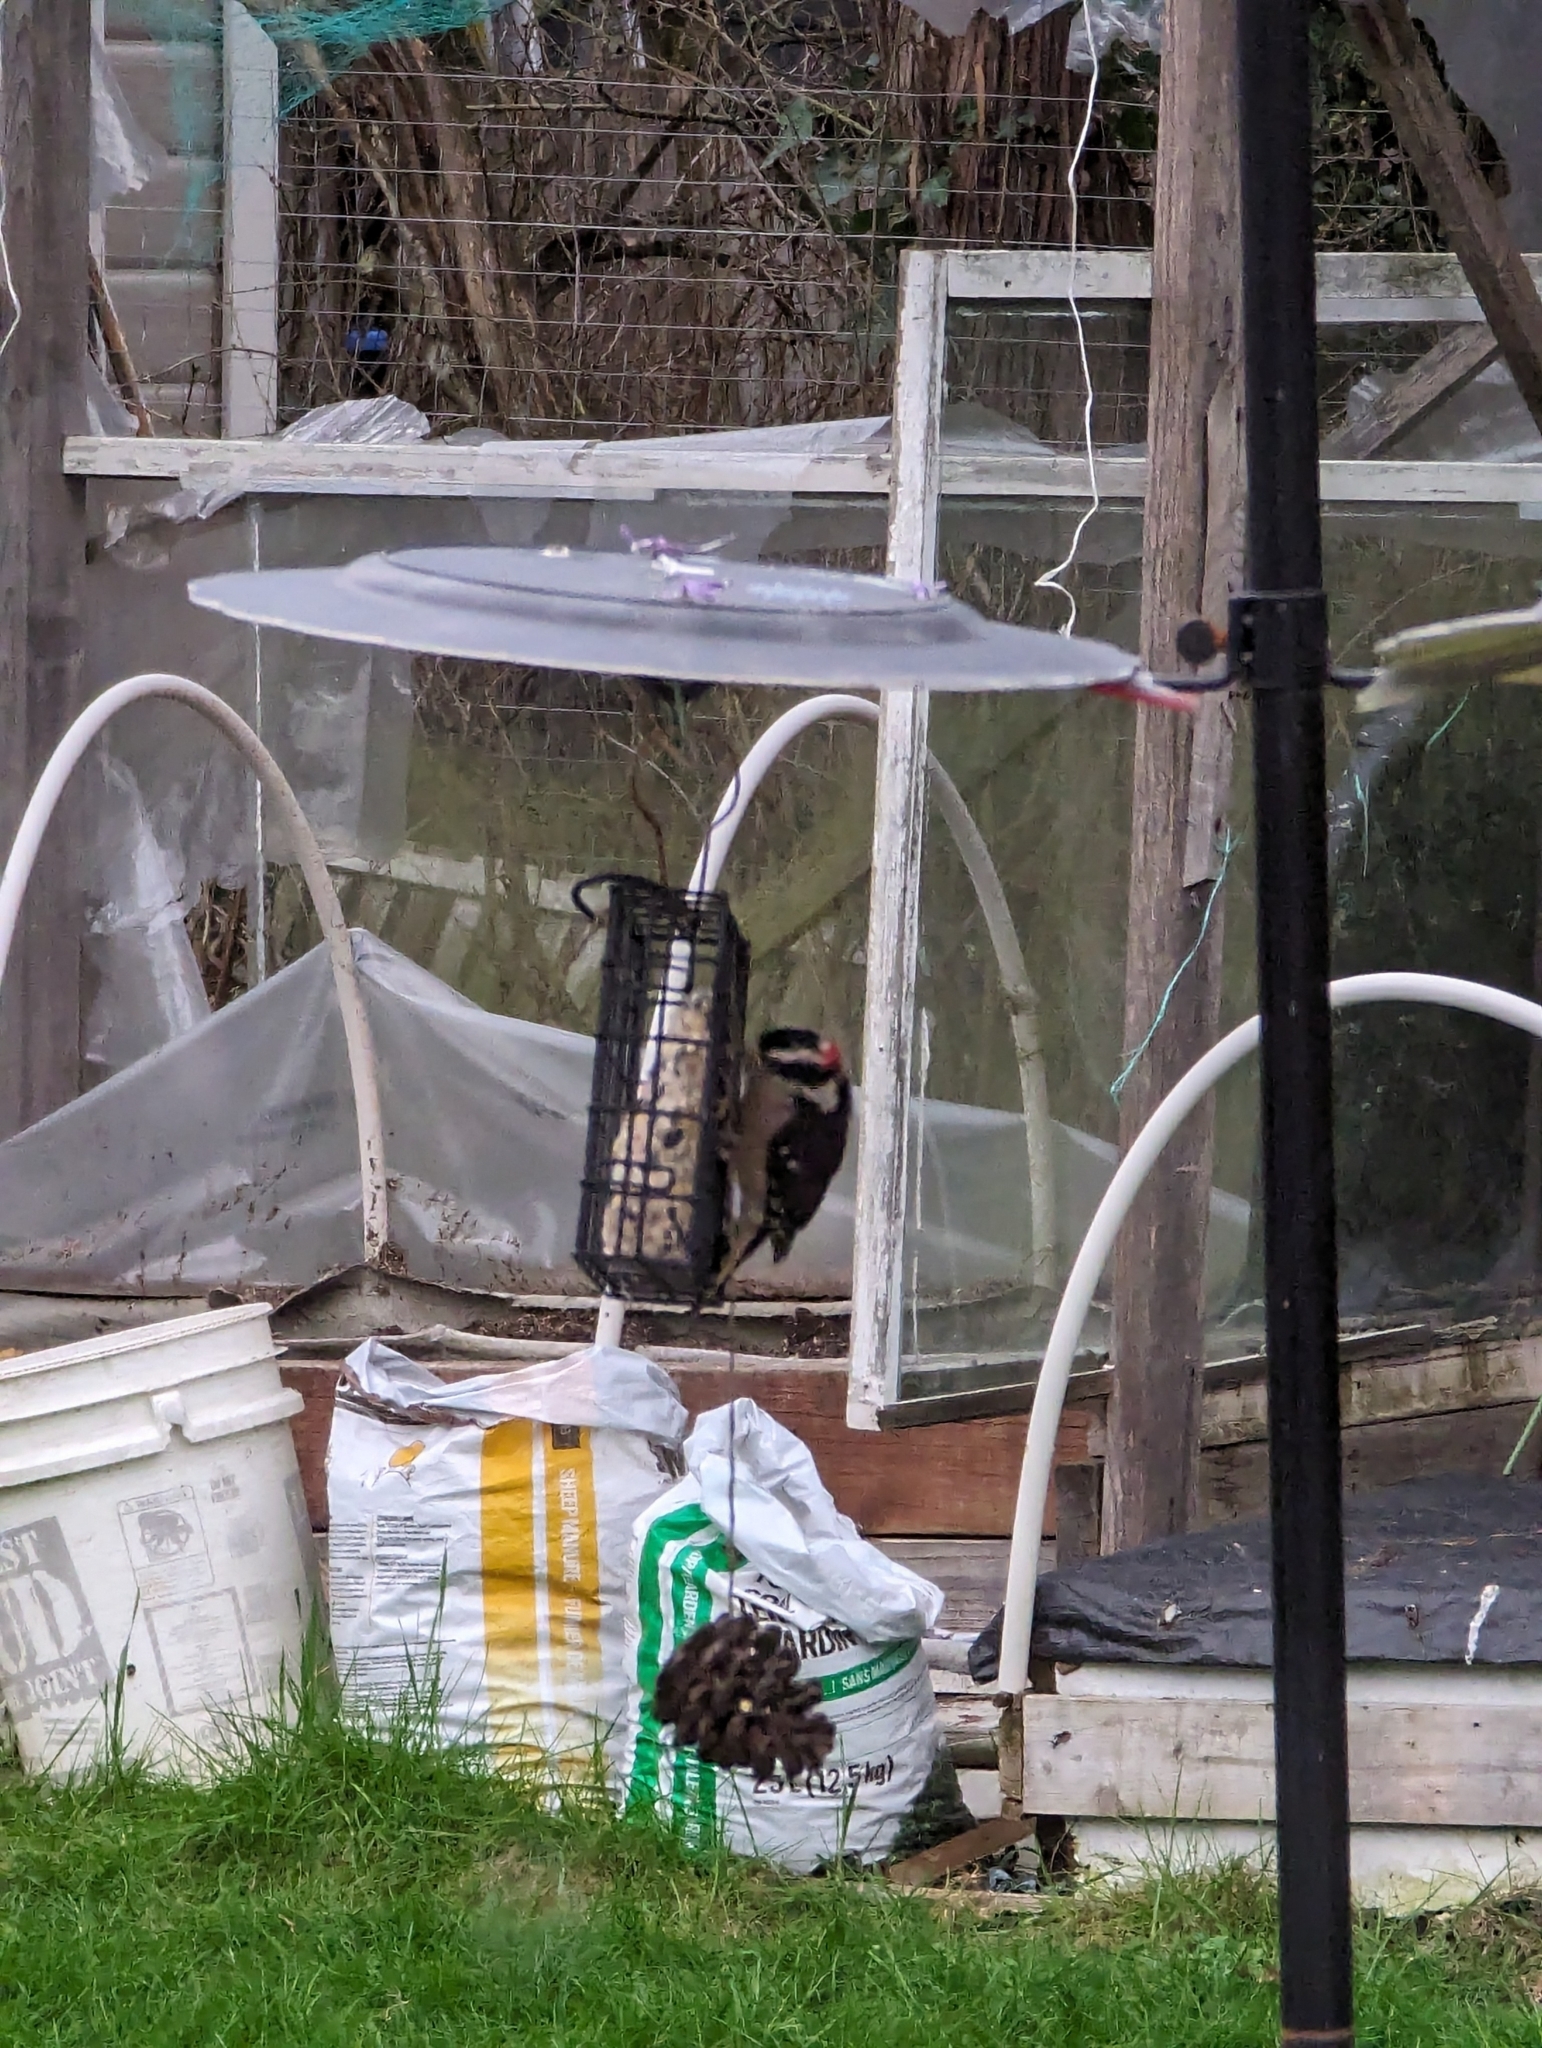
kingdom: Animalia
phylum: Chordata
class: Aves
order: Piciformes
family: Picidae
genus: Dryobates
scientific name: Dryobates pubescens
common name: Downy woodpecker
